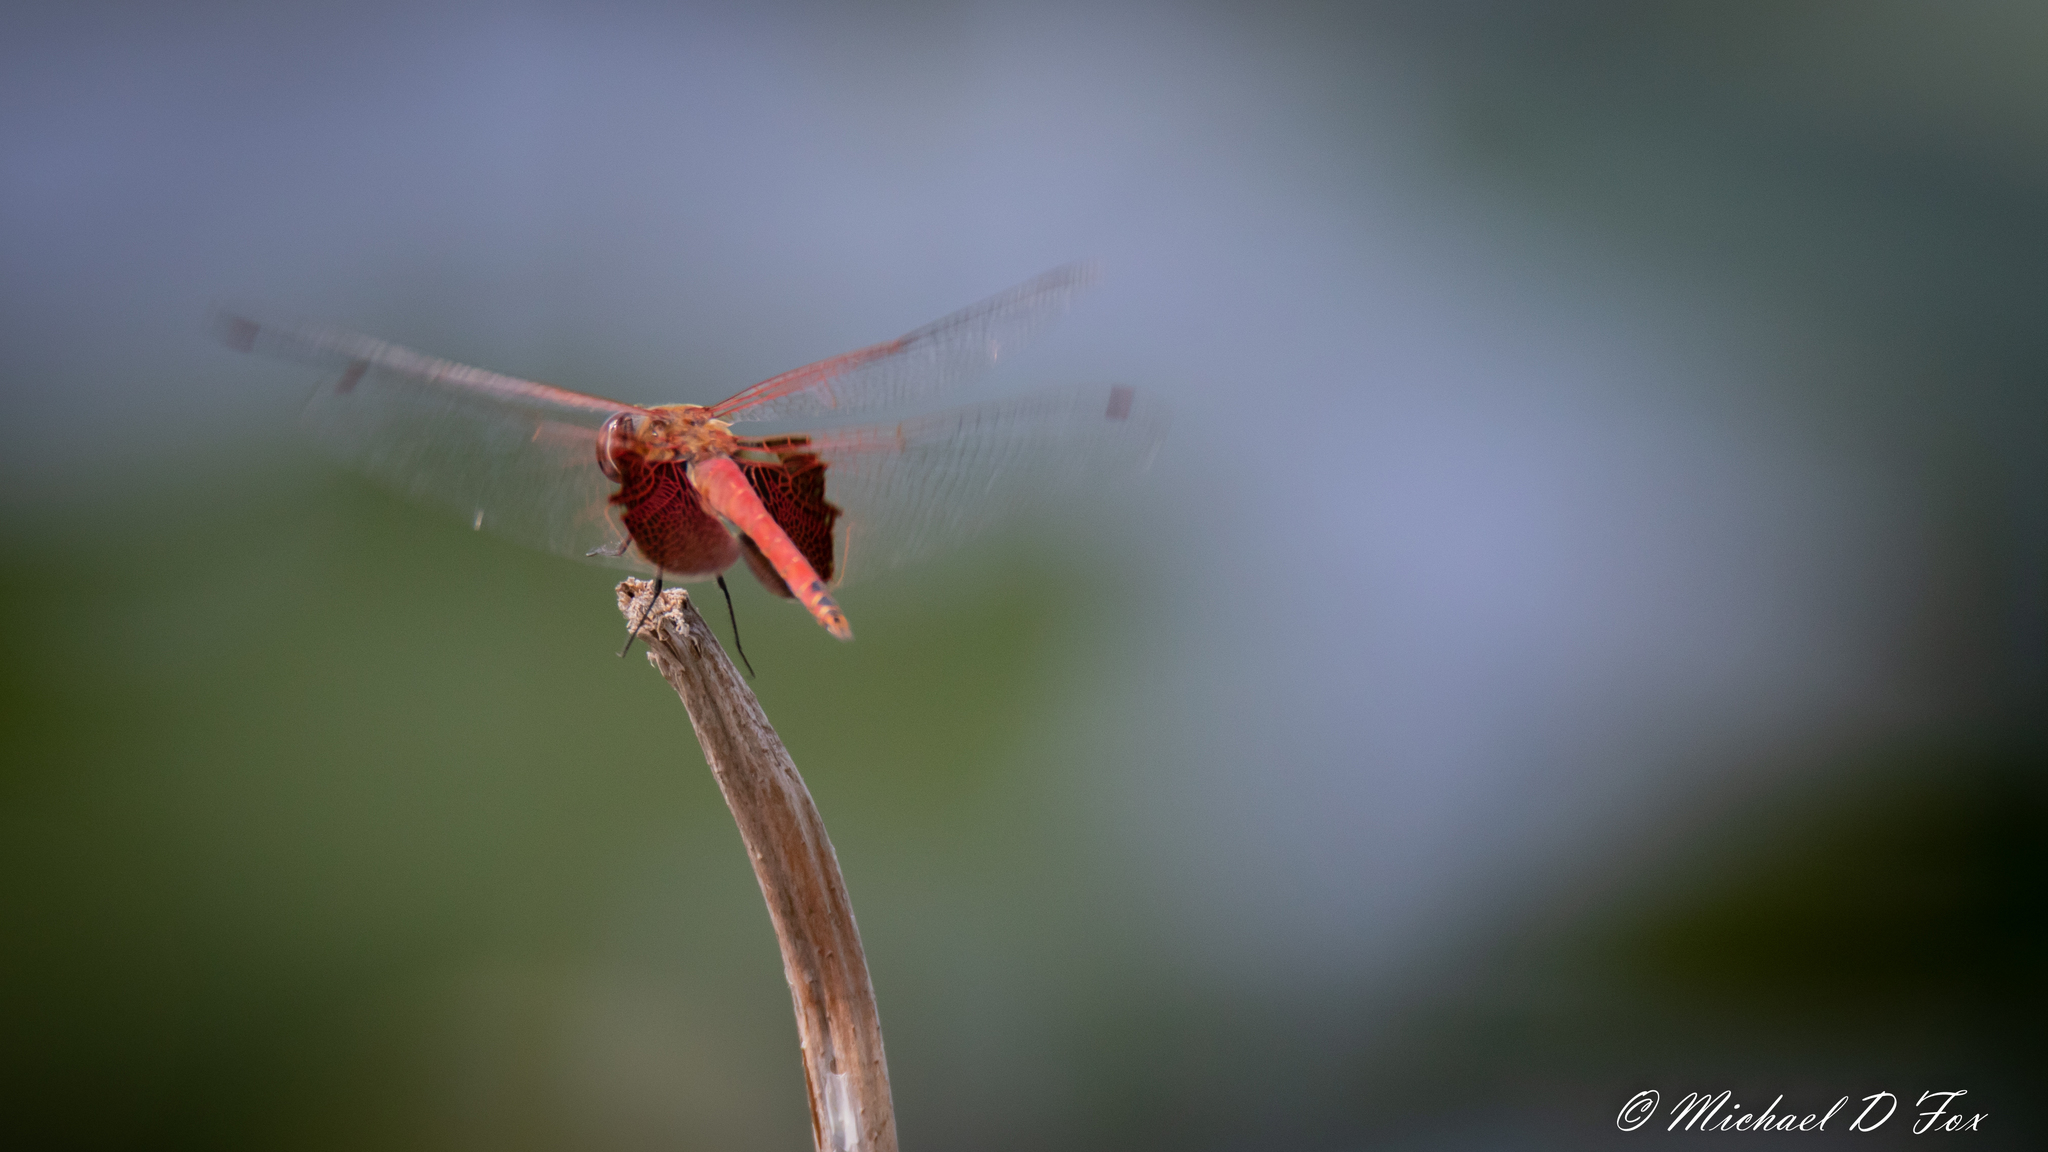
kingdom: Animalia
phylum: Arthropoda
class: Insecta
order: Odonata
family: Libellulidae
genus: Tramea
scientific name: Tramea onusta
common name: Red saddlebags
